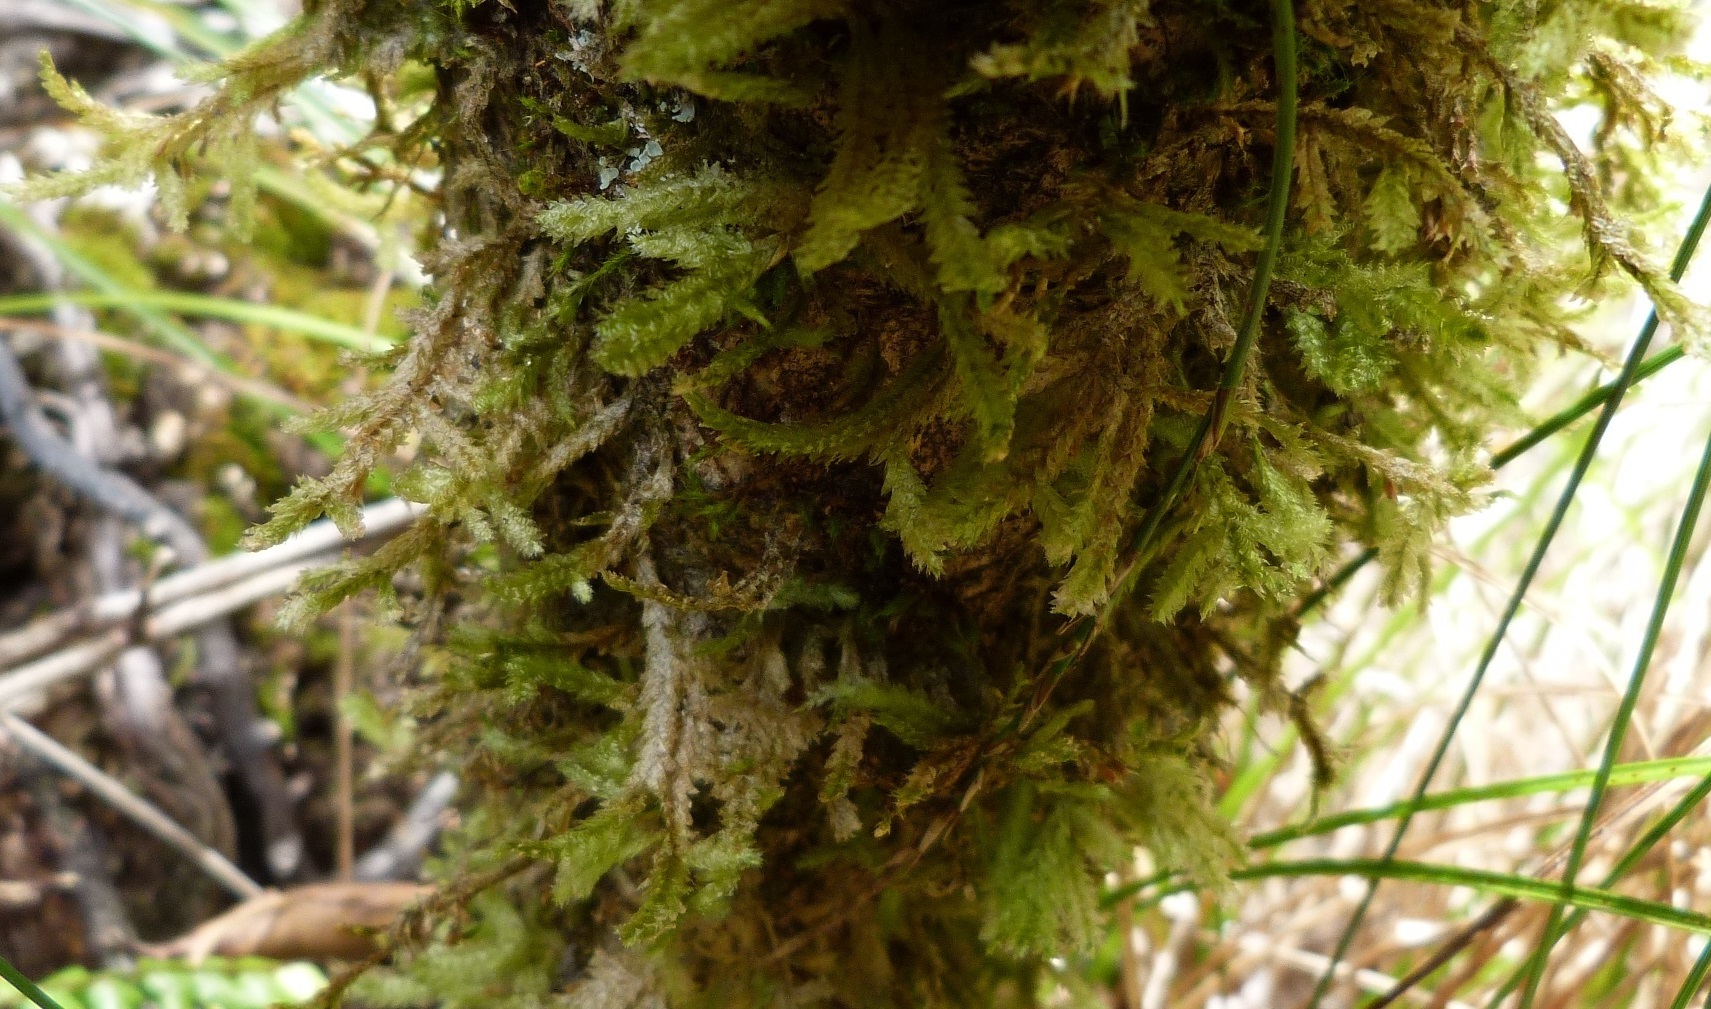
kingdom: Plantae
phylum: Bryophyta
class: Bryopsida
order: Hypnales
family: Neckeraceae
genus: Neckera
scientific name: Neckera pennata
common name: Feathery neckera
